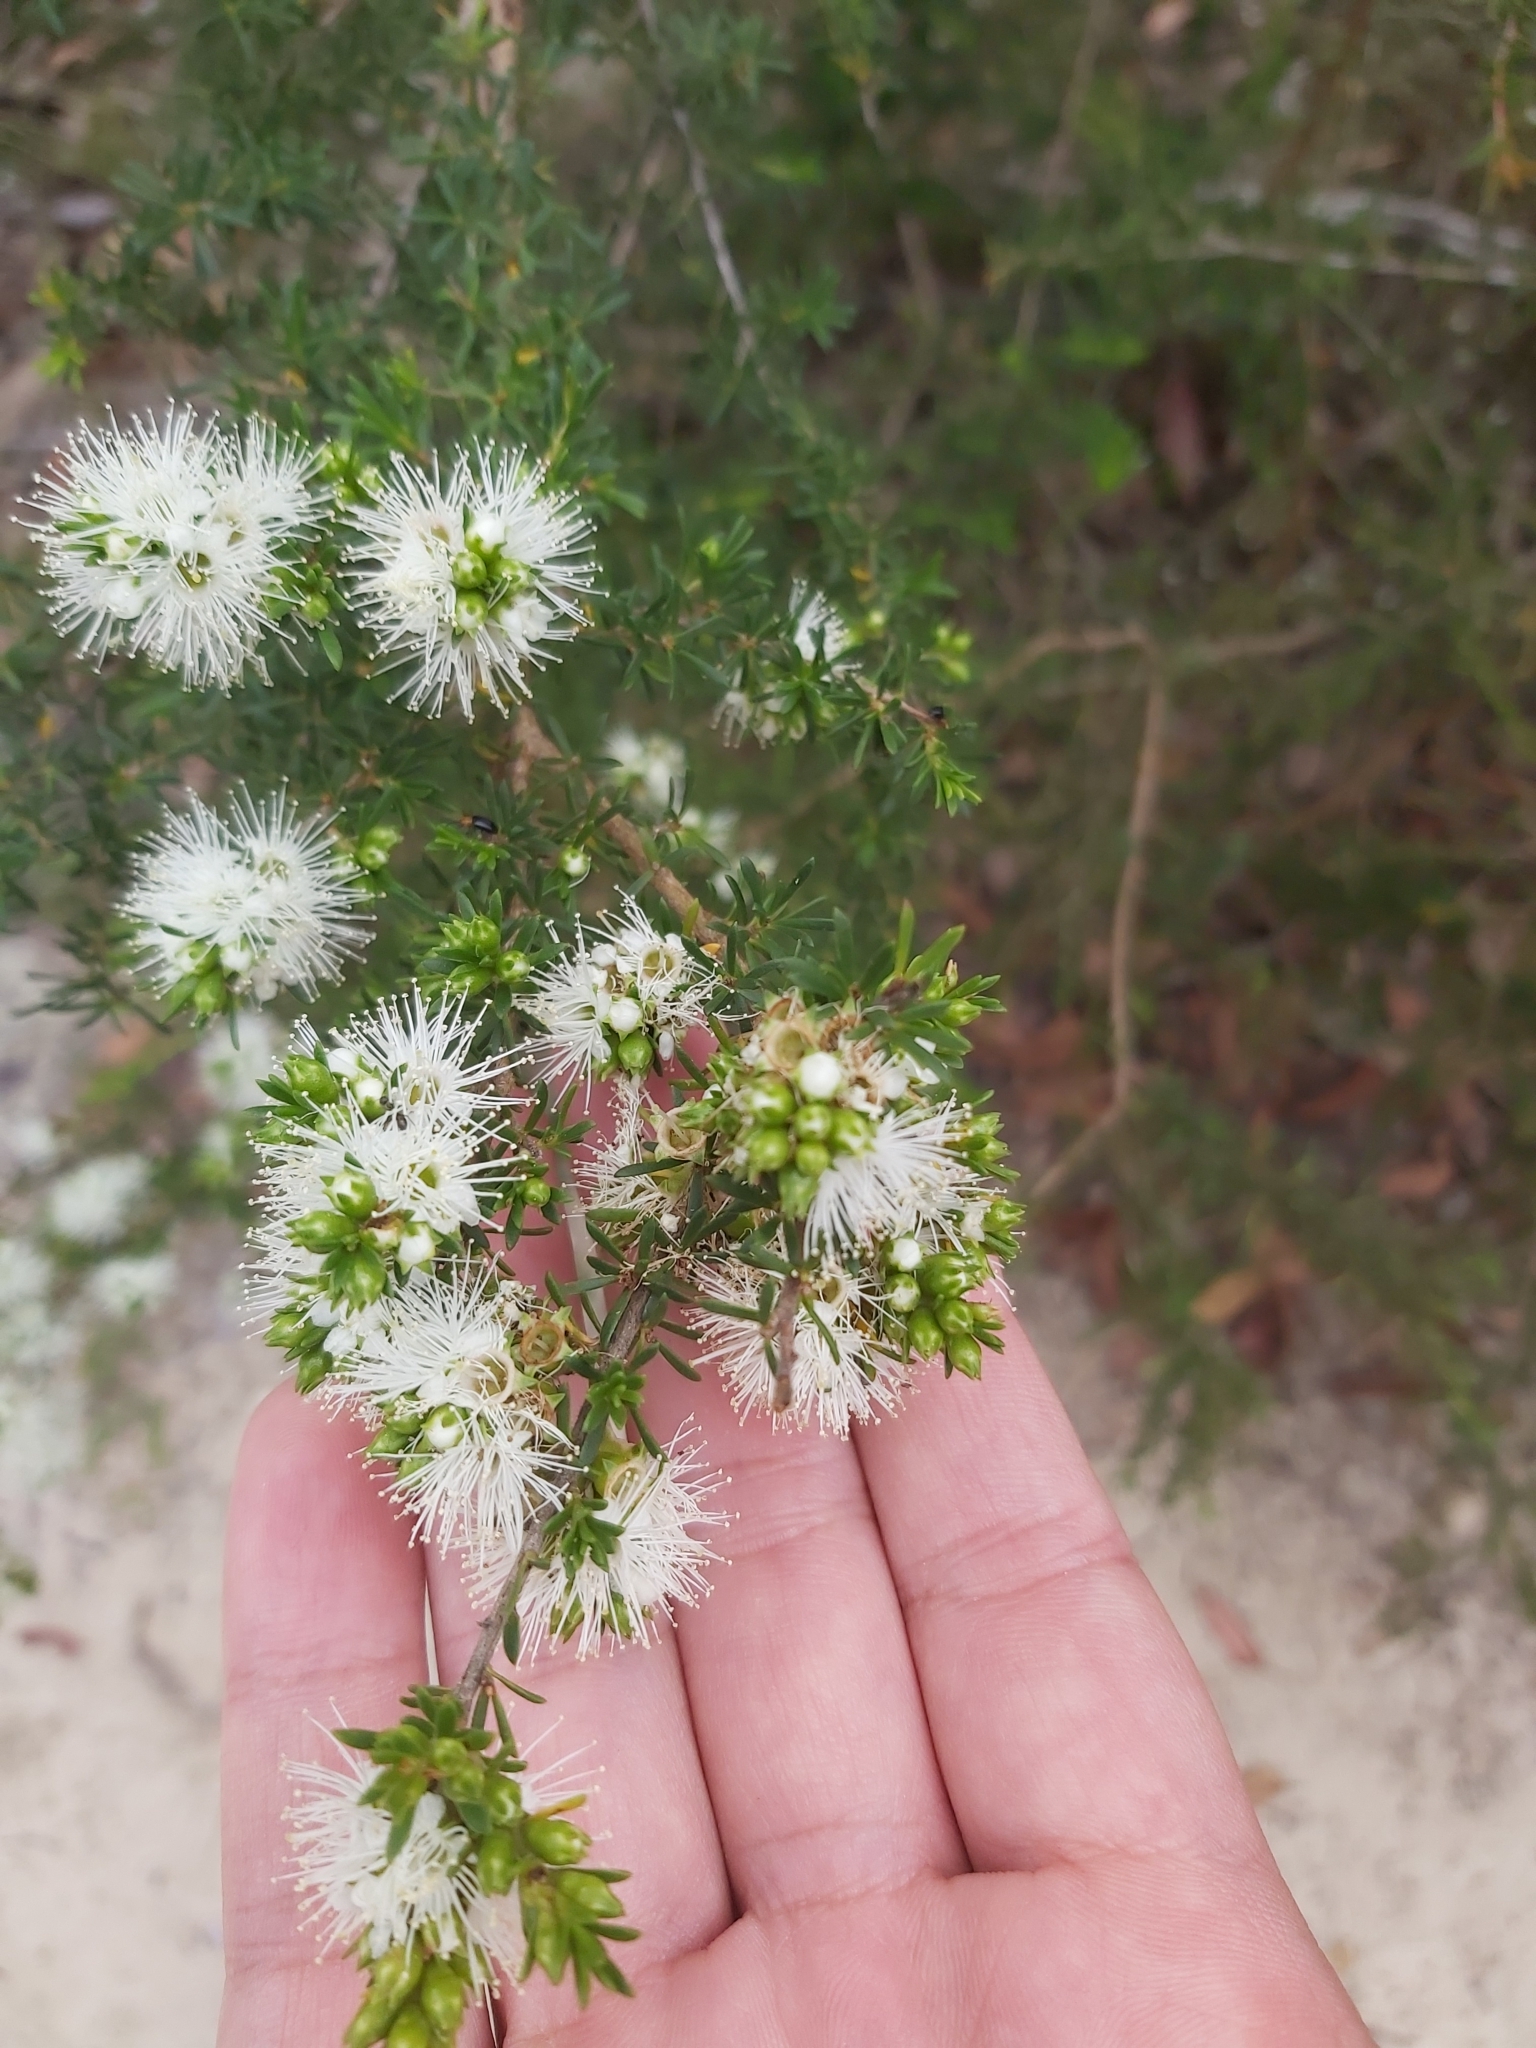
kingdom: Plantae
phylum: Tracheophyta
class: Magnoliopsida
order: Myrtales
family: Myrtaceae
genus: Kunzea
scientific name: Kunzea ambigua
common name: Tickbush
